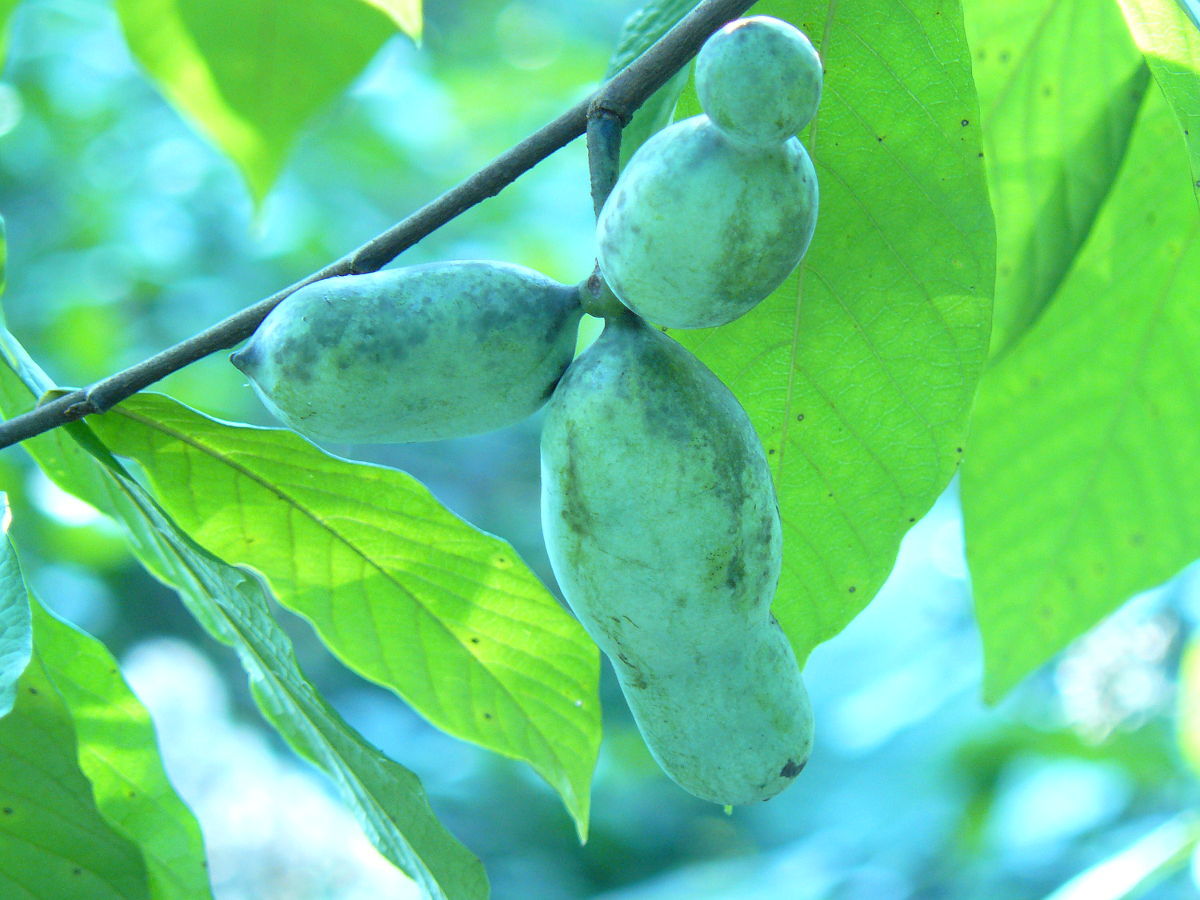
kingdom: Plantae
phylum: Tracheophyta
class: Magnoliopsida
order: Magnoliales
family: Annonaceae
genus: Asimina
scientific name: Asimina triloba
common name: Dog-banana
